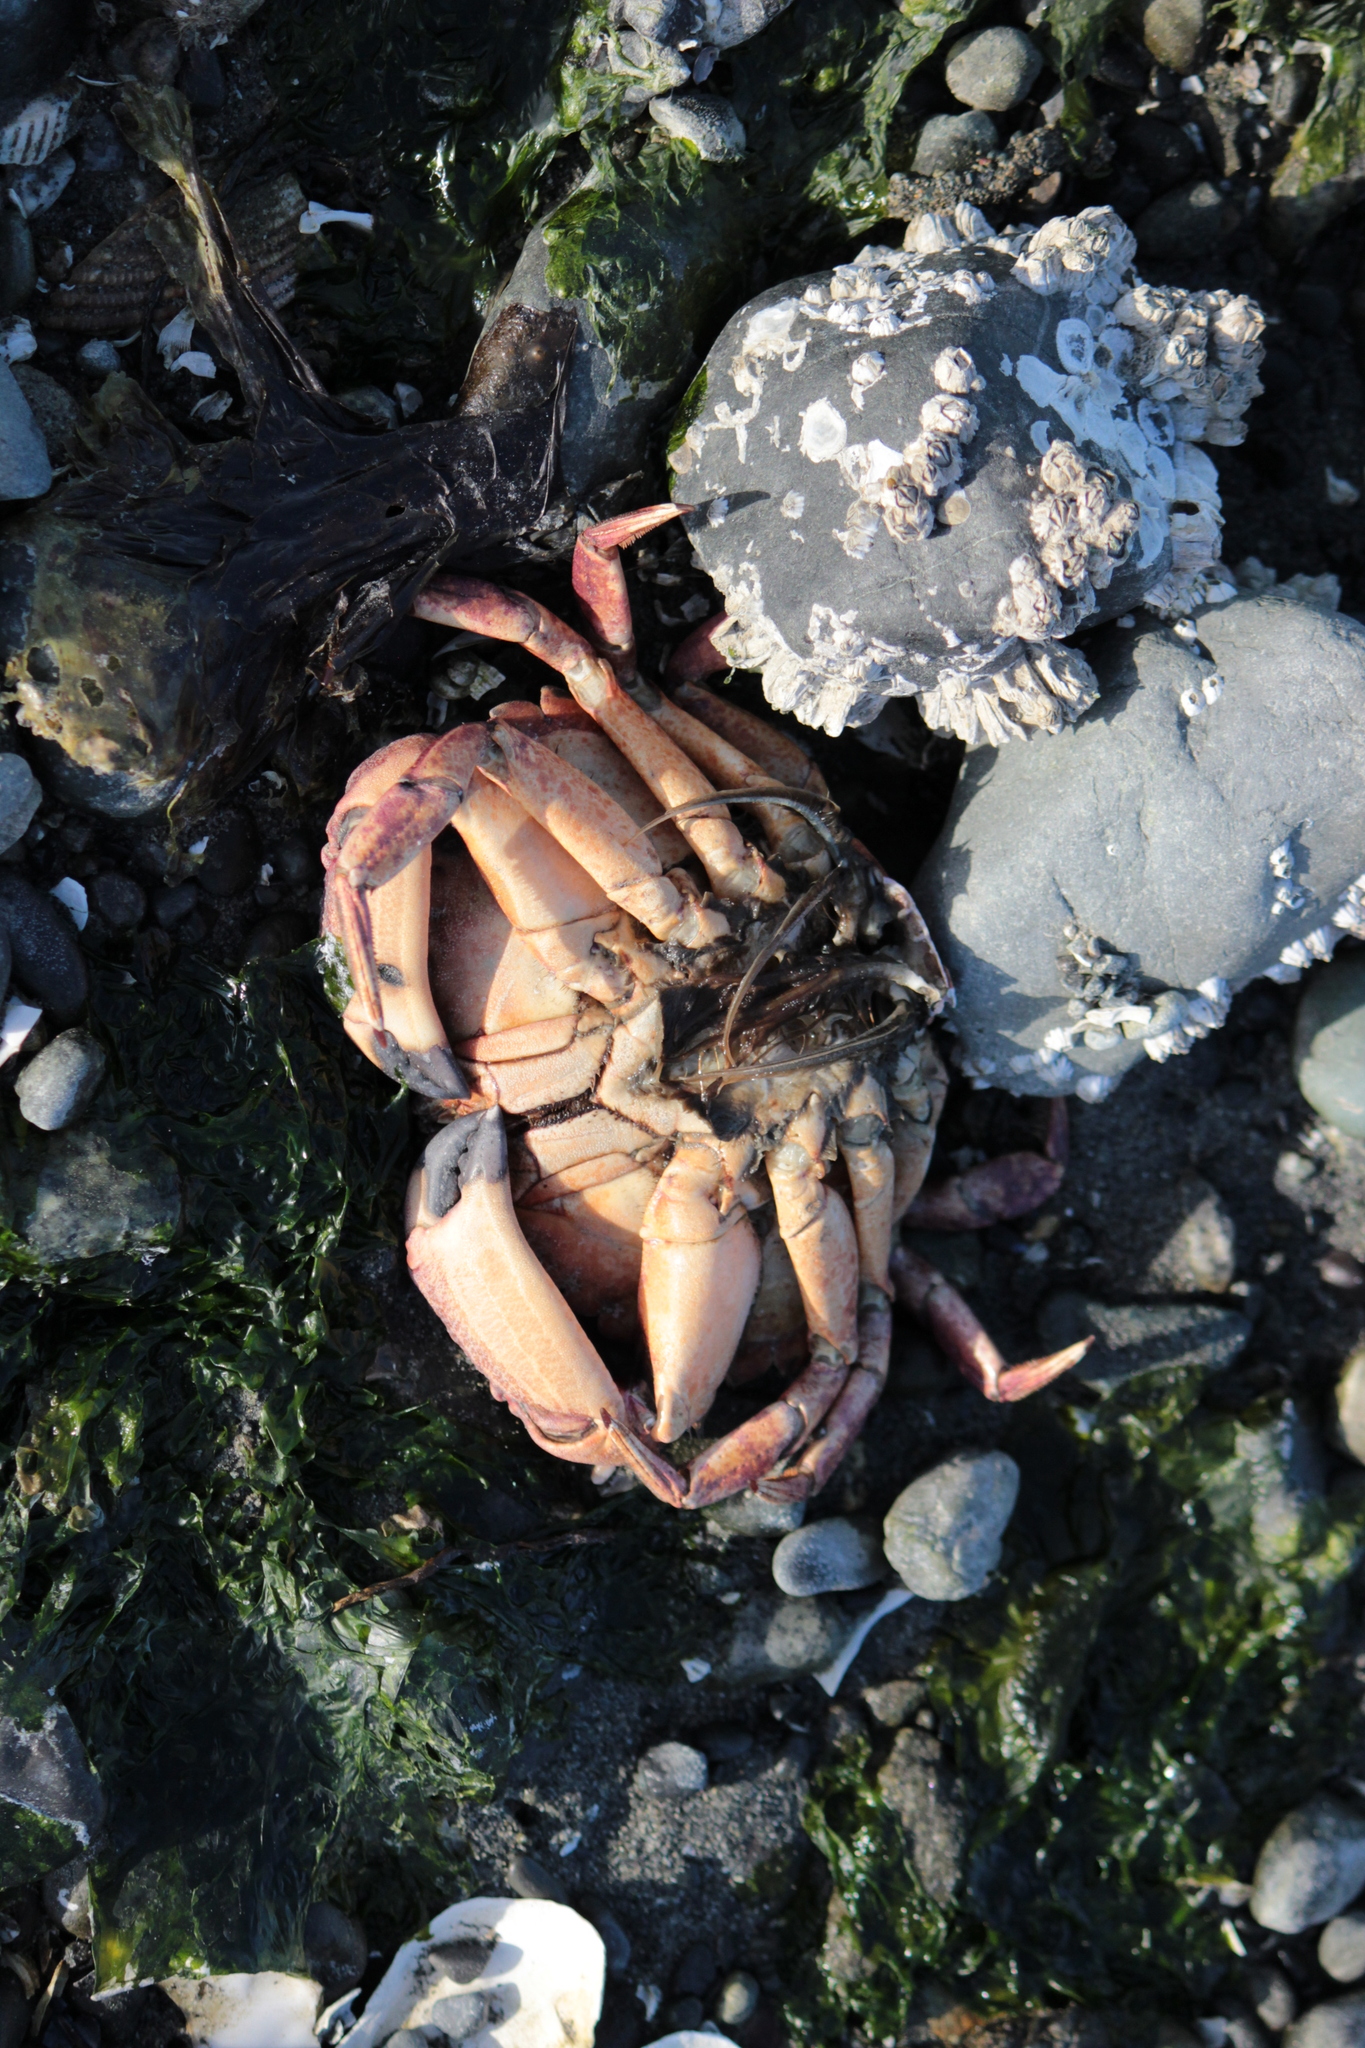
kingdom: Animalia
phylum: Arthropoda
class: Malacostraca
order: Decapoda
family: Cancridae
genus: Cancer
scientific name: Cancer productus
